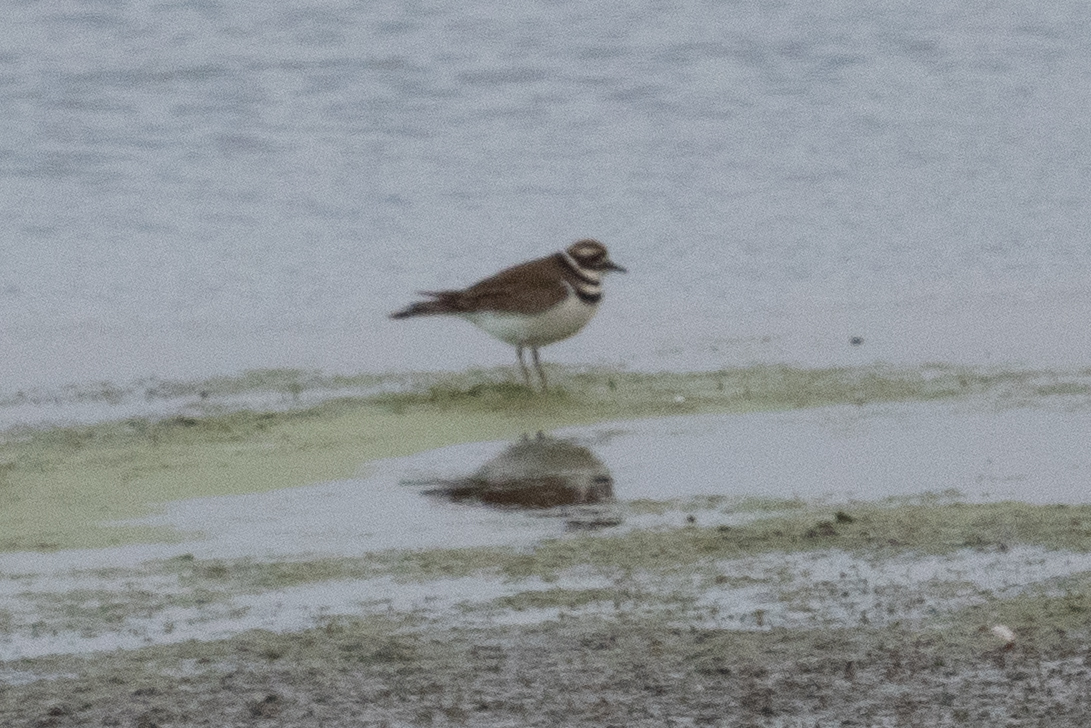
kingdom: Animalia
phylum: Chordata
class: Aves
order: Charadriiformes
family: Charadriidae
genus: Charadrius
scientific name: Charadrius vociferus
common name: Killdeer
